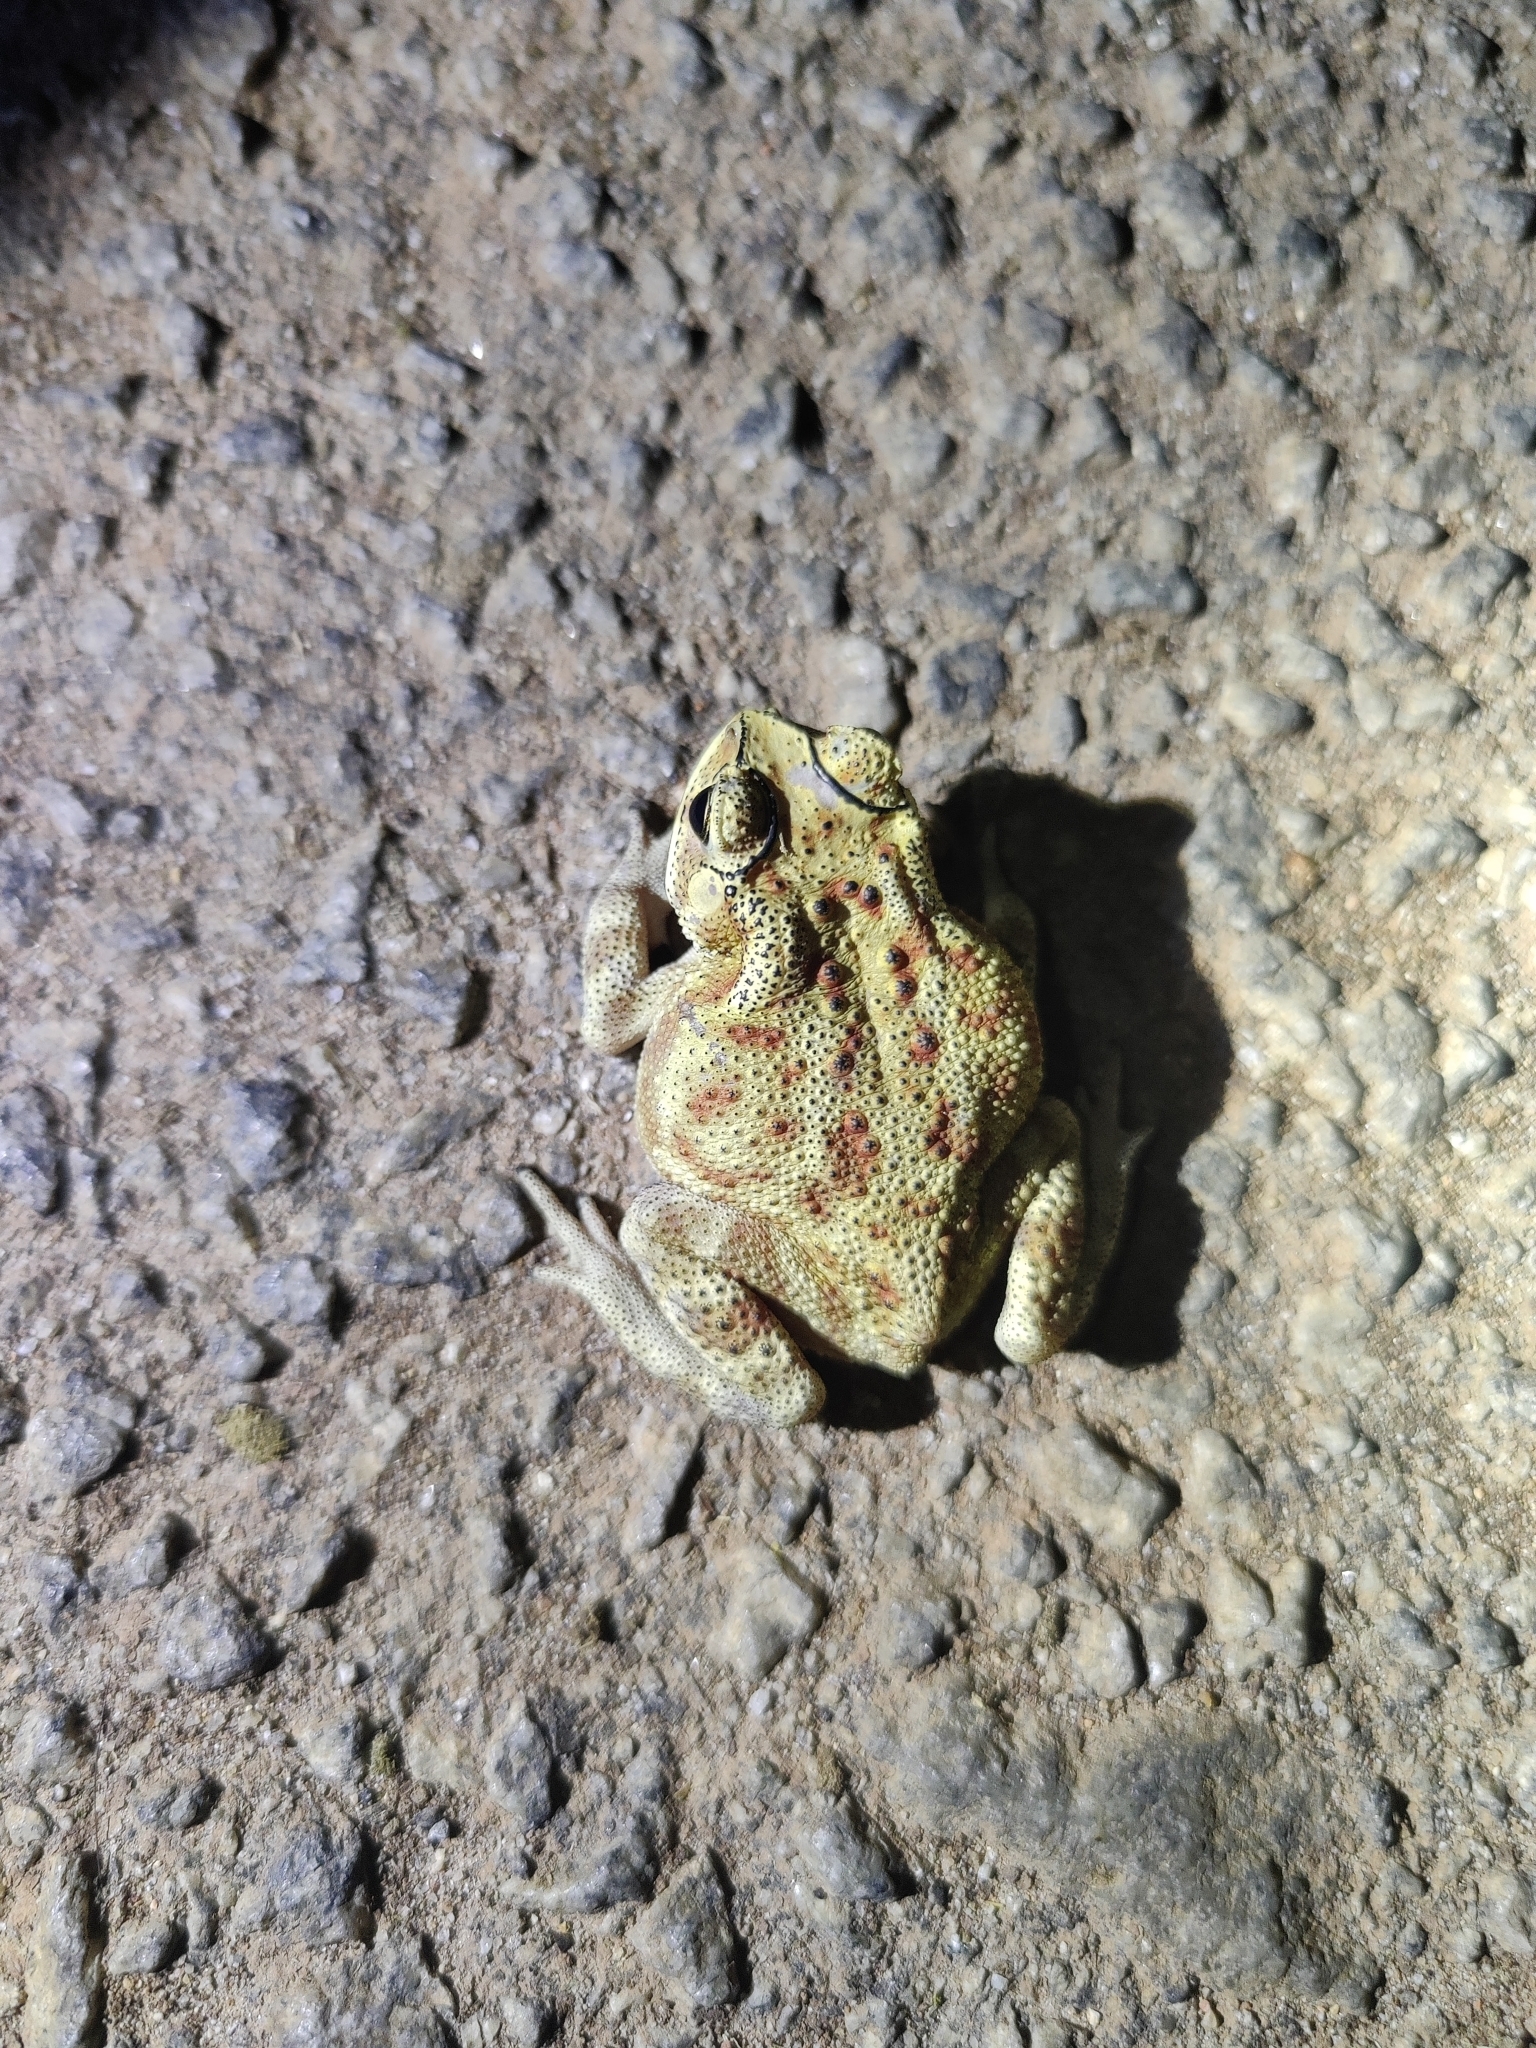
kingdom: Animalia
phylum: Chordata
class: Amphibia
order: Anura
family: Bufonidae
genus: Duttaphrynus
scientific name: Duttaphrynus melanostictus
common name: Common sunda toad
